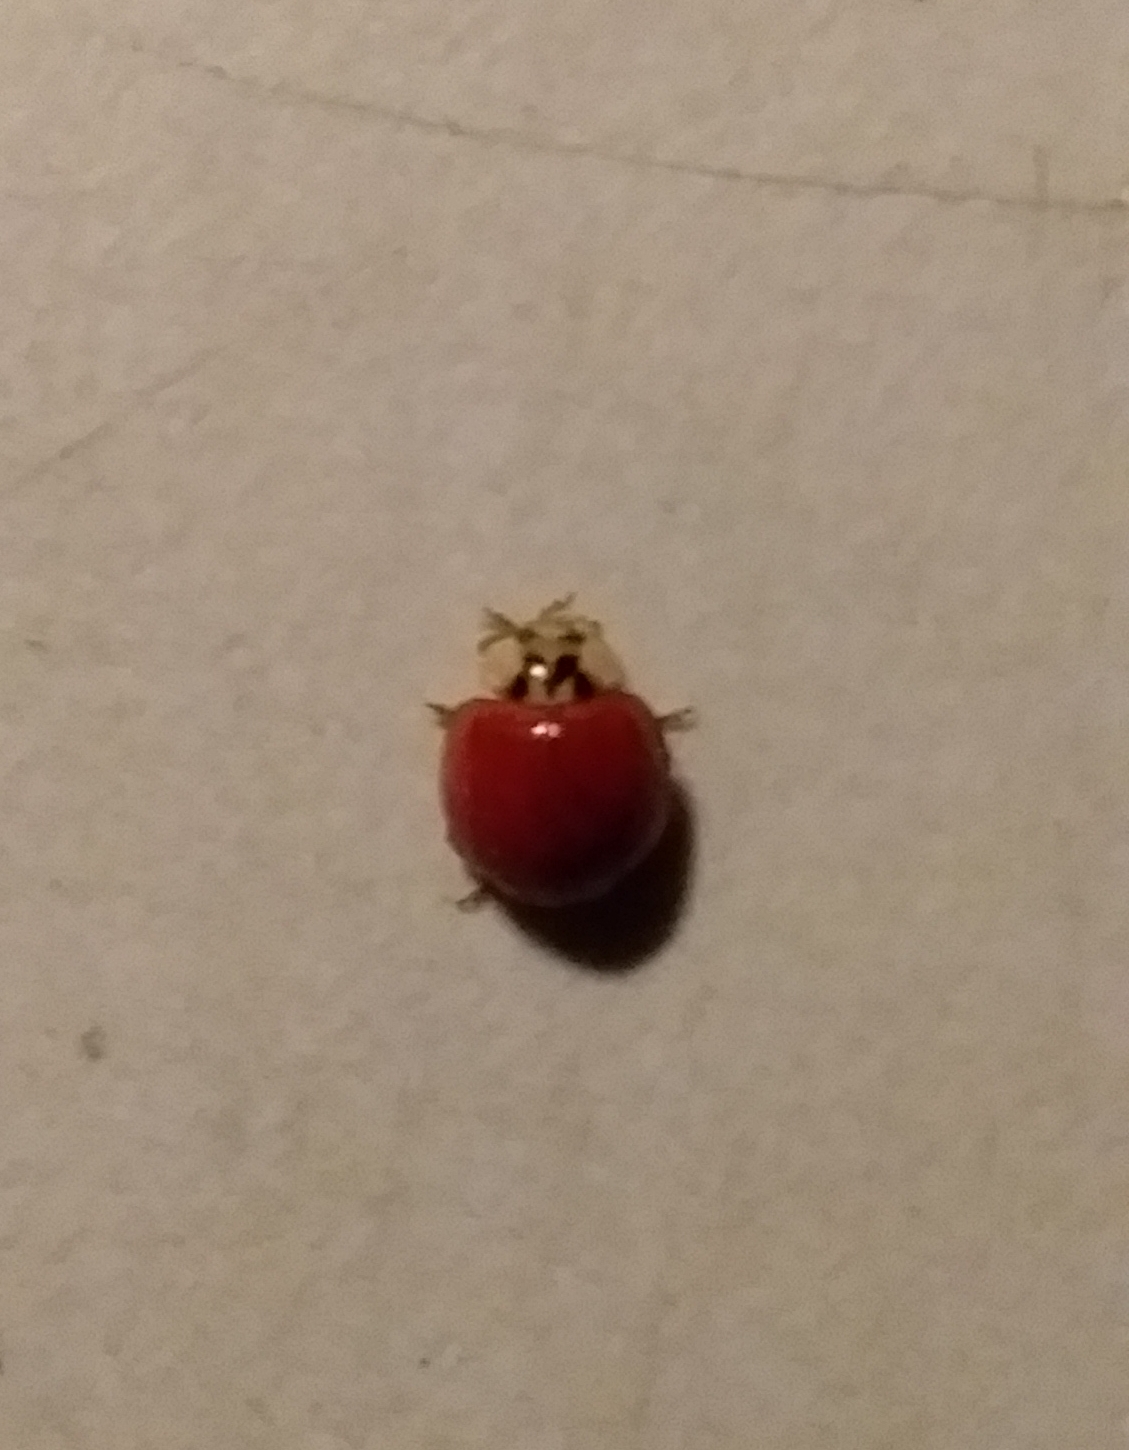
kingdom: Animalia
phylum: Arthropoda
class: Insecta
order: Coleoptera
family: Coccinellidae
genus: Harmonia
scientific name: Harmonia axyridis
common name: Harlequin ladybird
